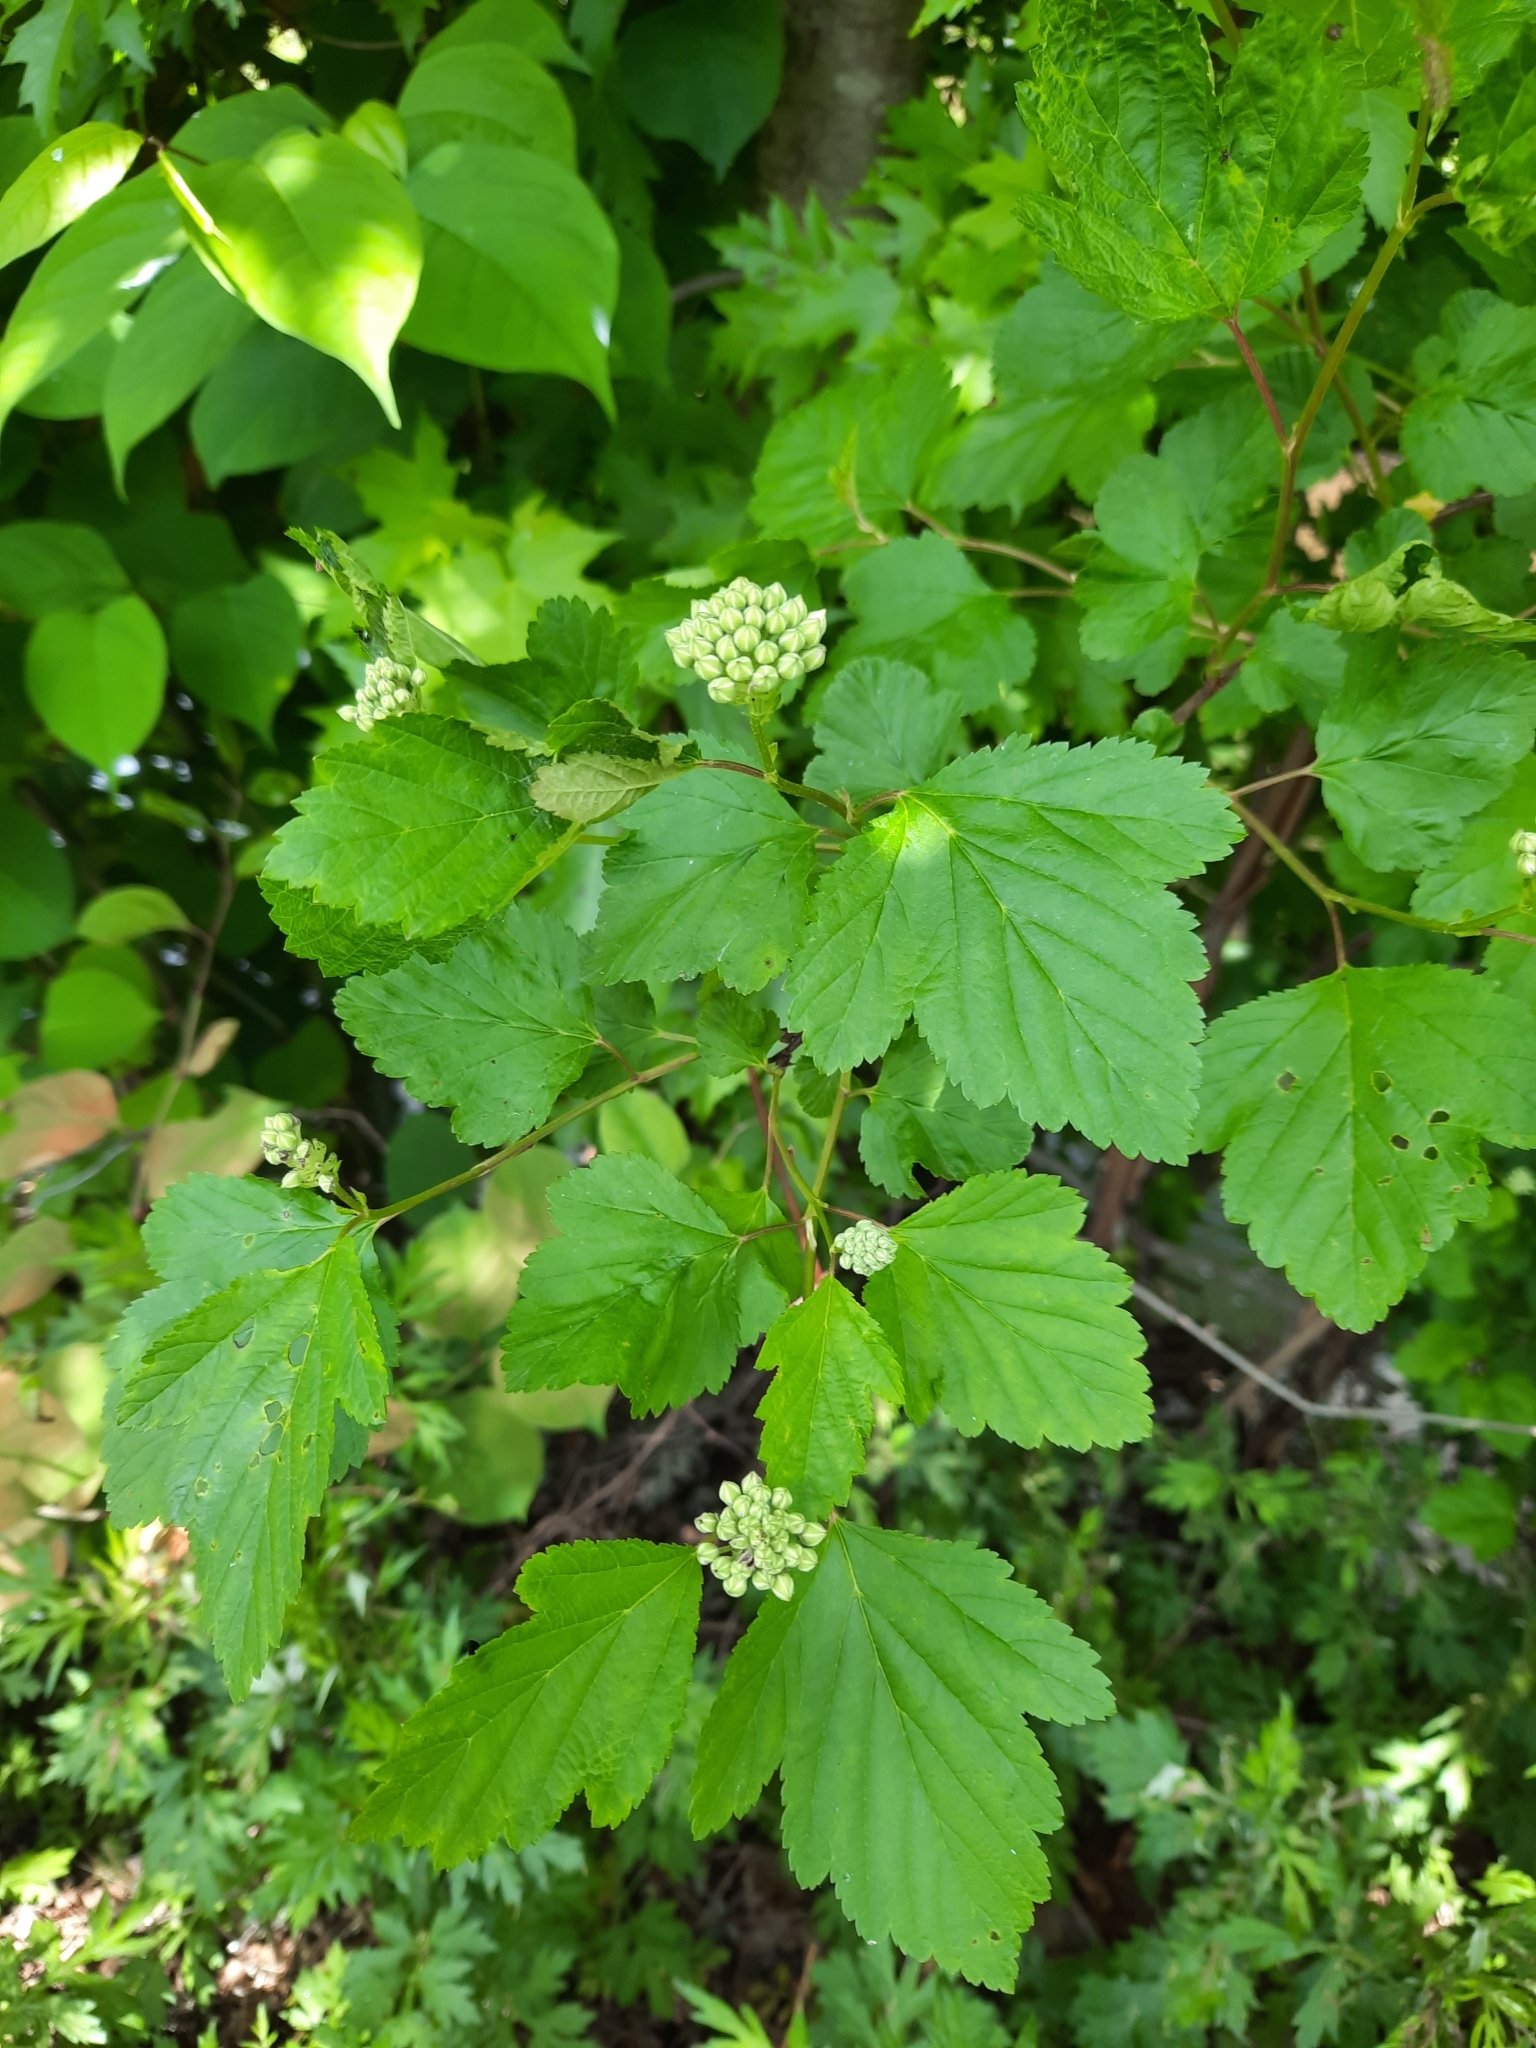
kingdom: Plantae
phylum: Tracheophyta
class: Magnoliopsida
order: Rosales
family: Rosaceae
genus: Physocarpus
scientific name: Physocarpus opulifolius
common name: Ninebark
